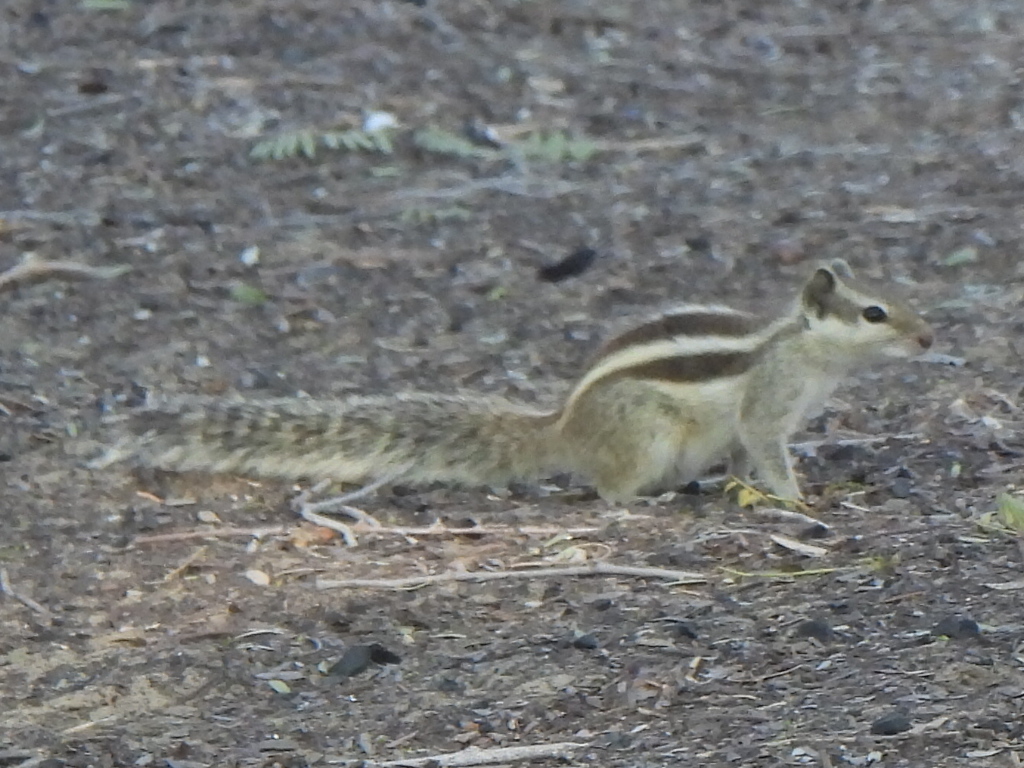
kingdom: Animalia
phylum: Chordata
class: Mammalia
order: Rodentia
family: Sciuridae
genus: Funambulus
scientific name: Funambulus pennantii
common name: Northern palm squirrel
